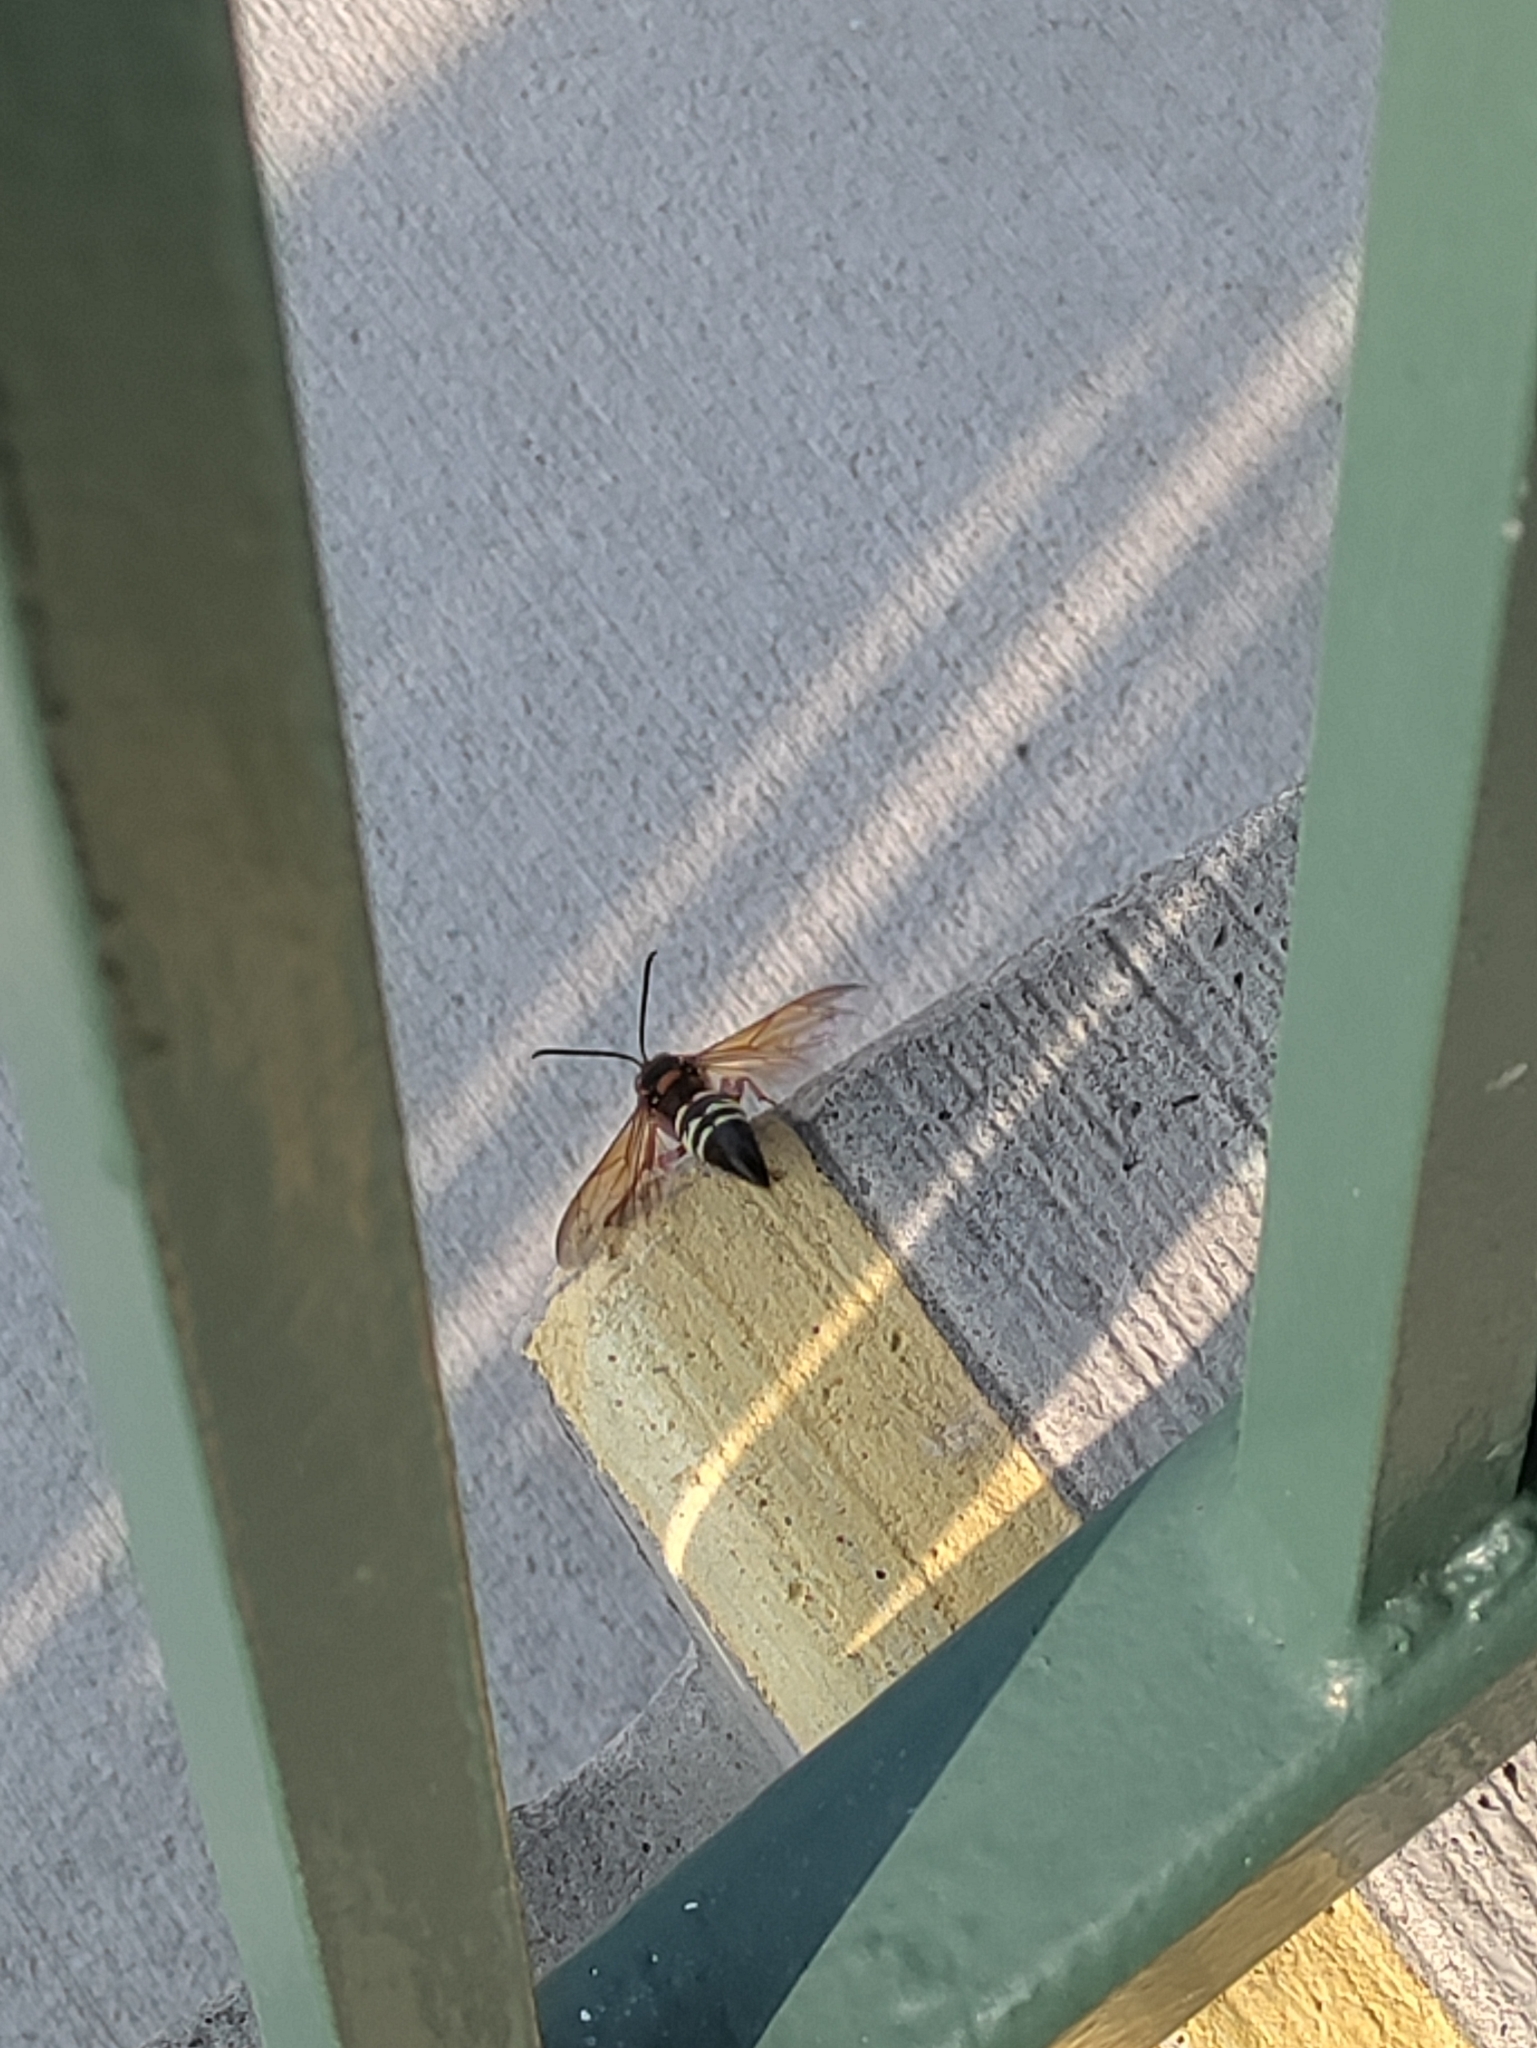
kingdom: Animalia
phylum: Arthropoda
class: Insecta
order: Hymenoptera
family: Crabronidae
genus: Sphecius
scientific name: Sphecius speciosus
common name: Cicada killer
